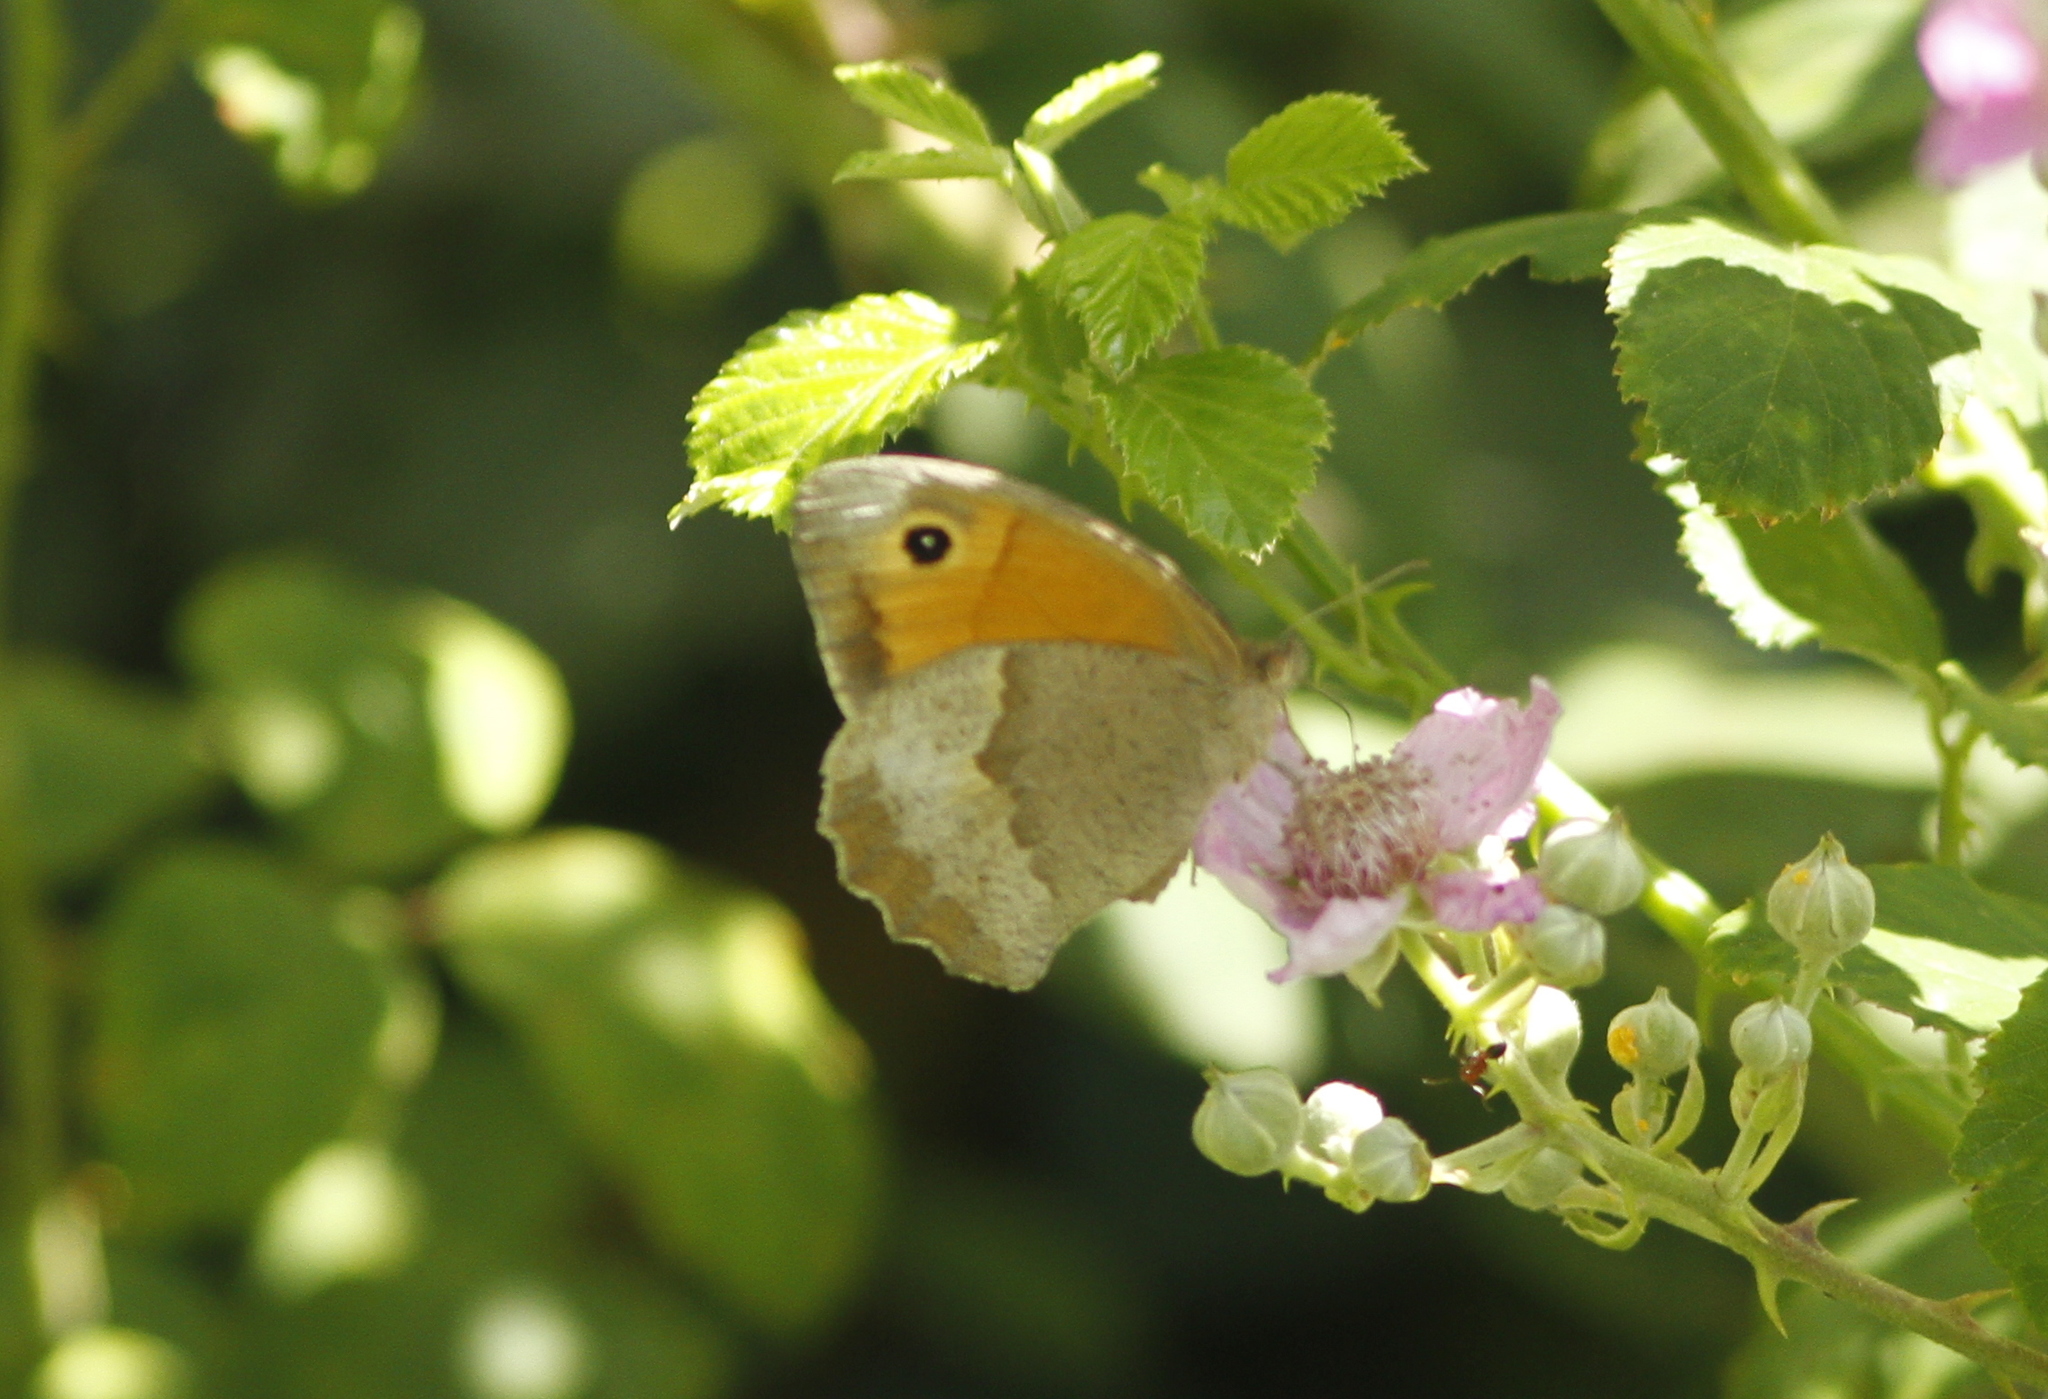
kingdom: Animalia
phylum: Arthropoda
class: Insecta
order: Lepidoptera
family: Nymphalidae
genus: Maniola
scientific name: Maniola jurtina
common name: Meadow brown
